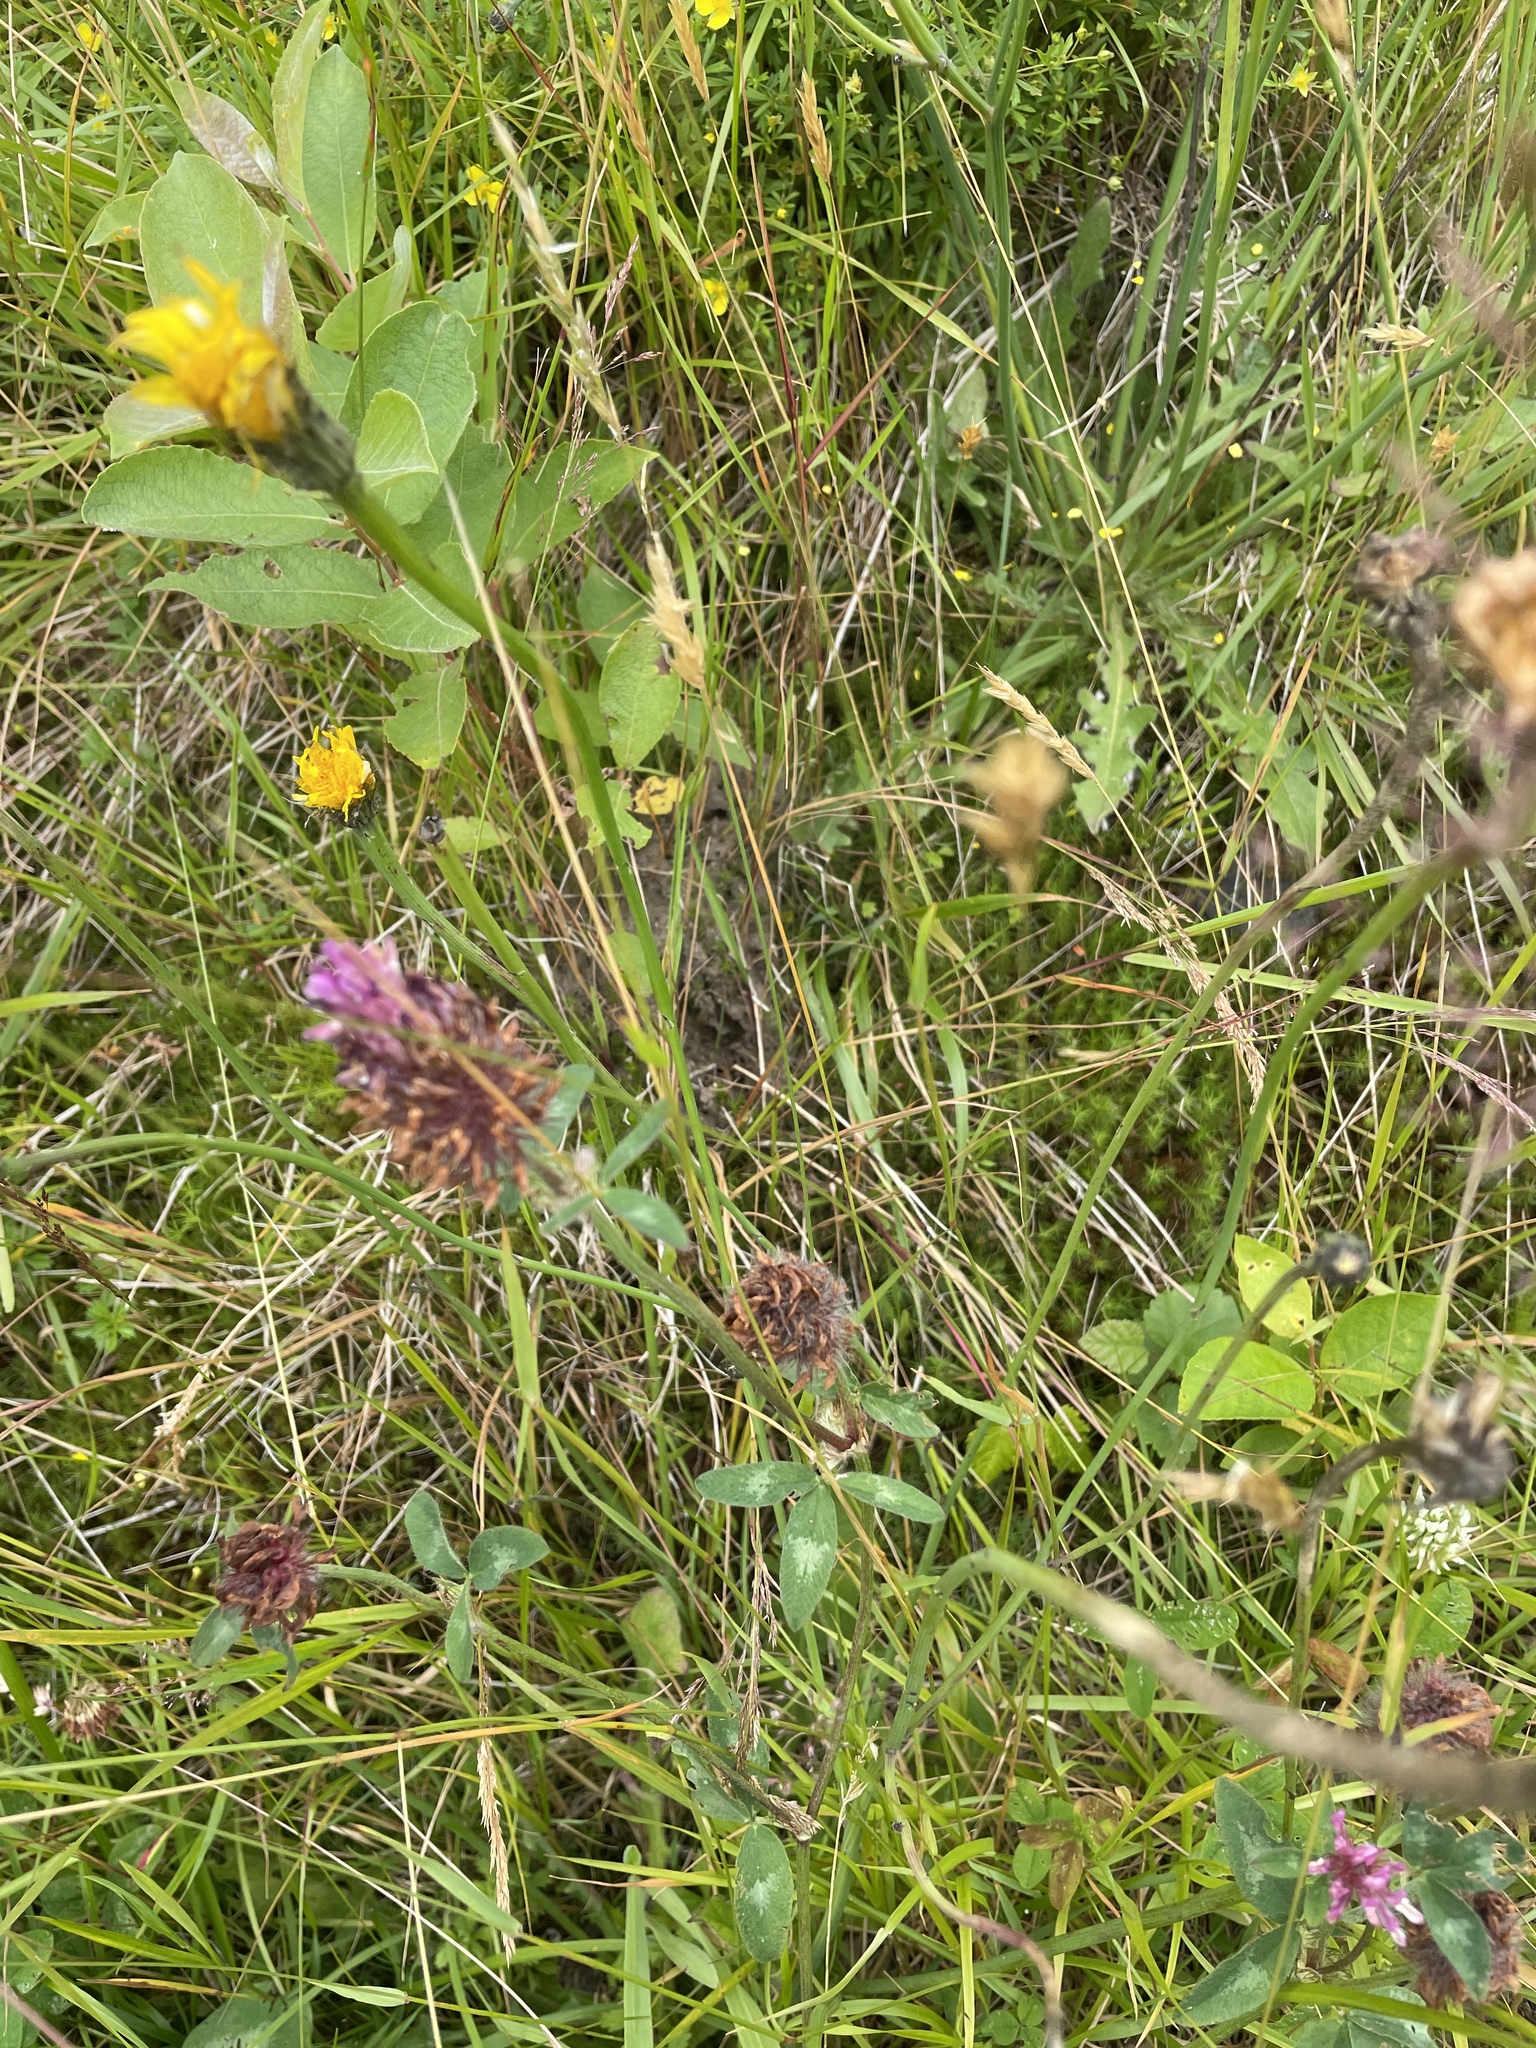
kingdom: Plantae
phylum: Tracheophyta
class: Magnoliopsida
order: Fabales
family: Fabaceae
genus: Trifolium
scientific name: Trifolium pratense
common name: Red clover
